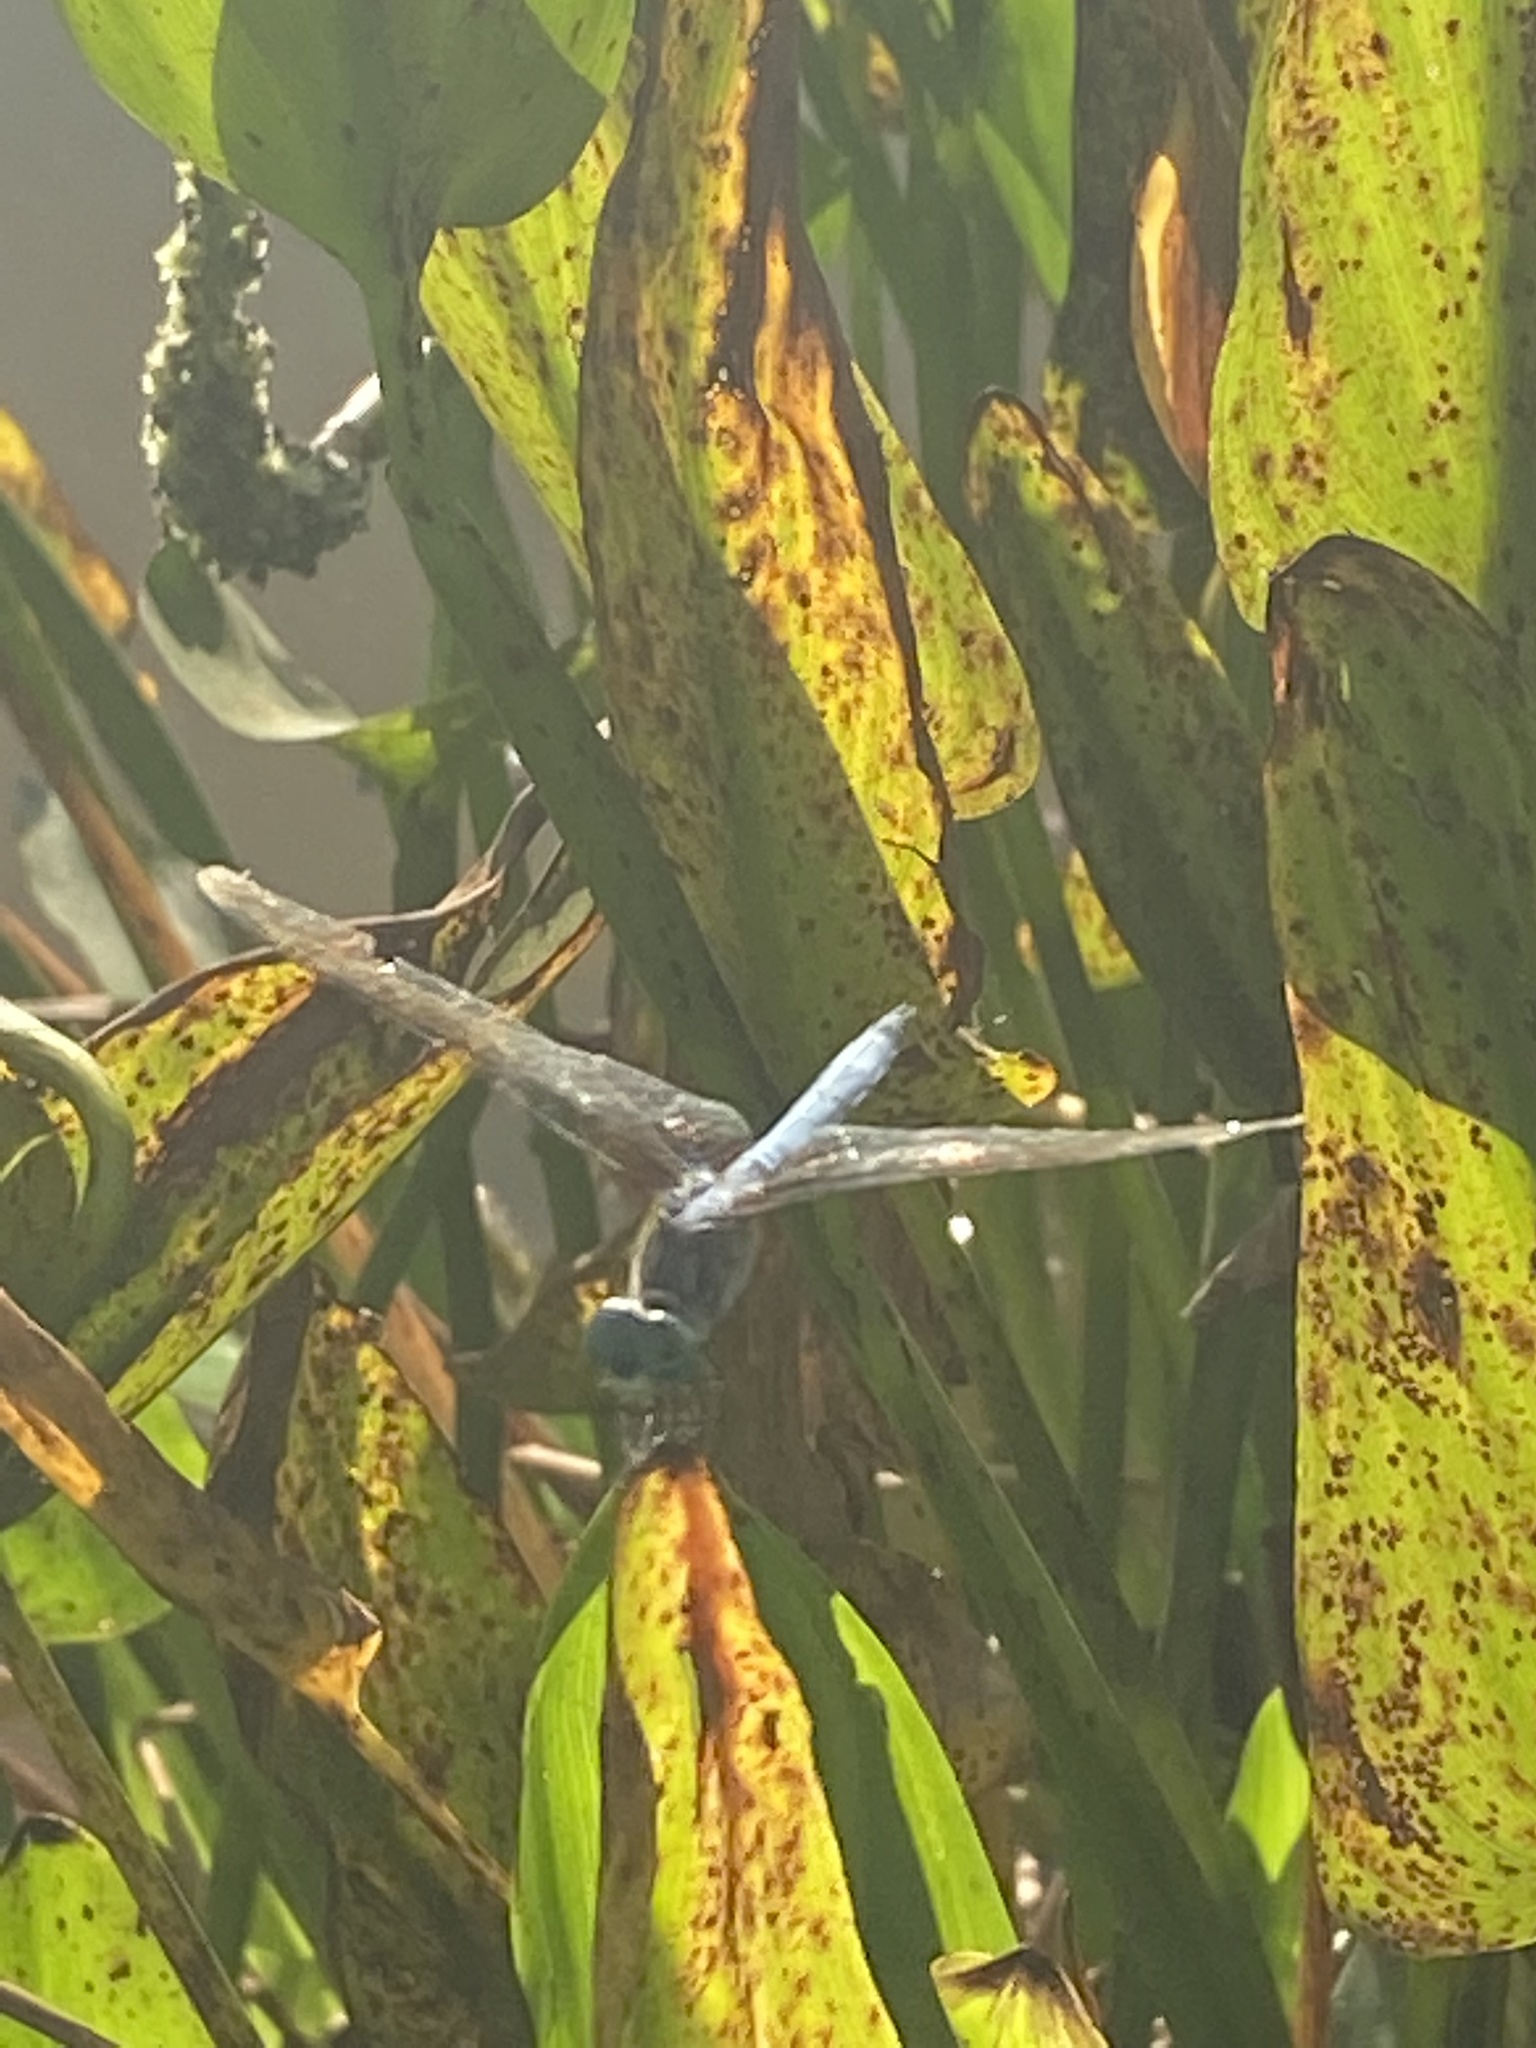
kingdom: Animalia
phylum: Arthropoda
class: Insecta
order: Odonata
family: Libellulidae
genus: Pachydiplax
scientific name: Pachydiplax longipennis
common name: Blue dasher
